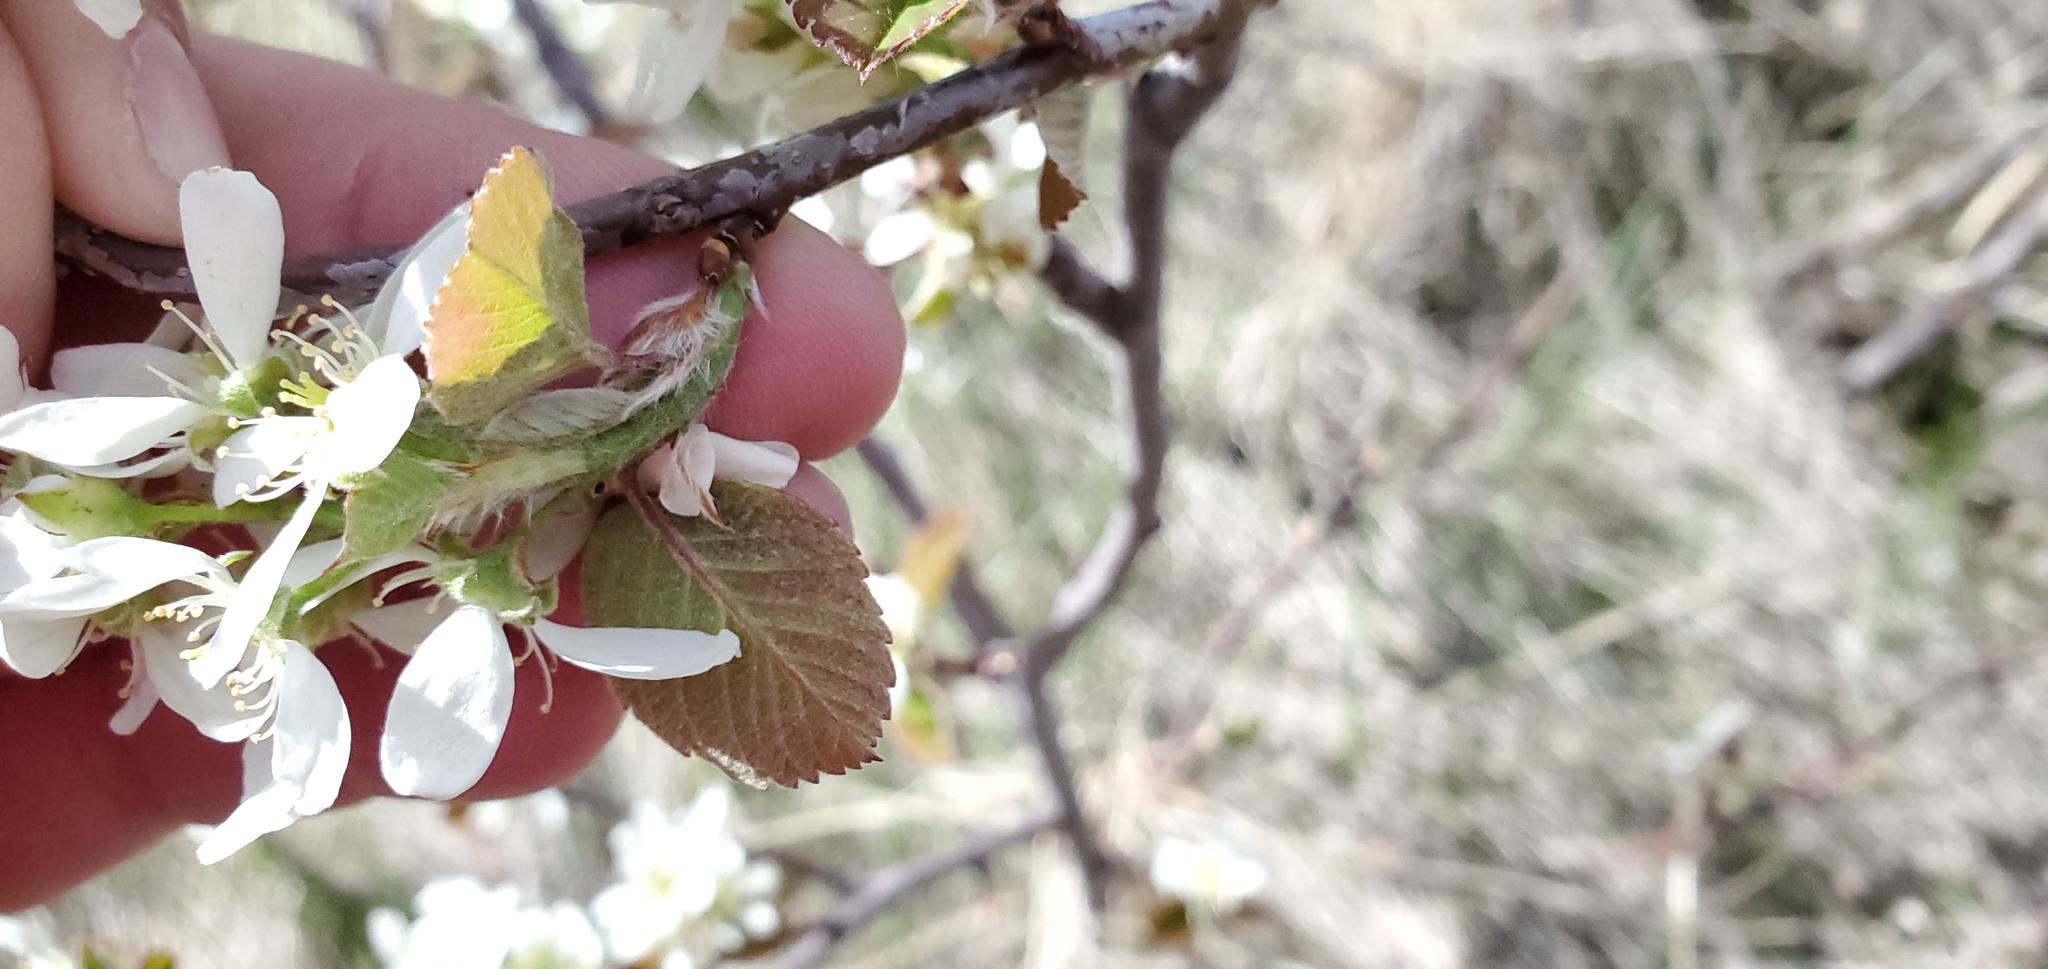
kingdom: Plantae
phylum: Tracheophyta
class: Magnoliopsida
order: Rosales
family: Rosaceae
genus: Amelanchier
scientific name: Amelanchier alnifolia
